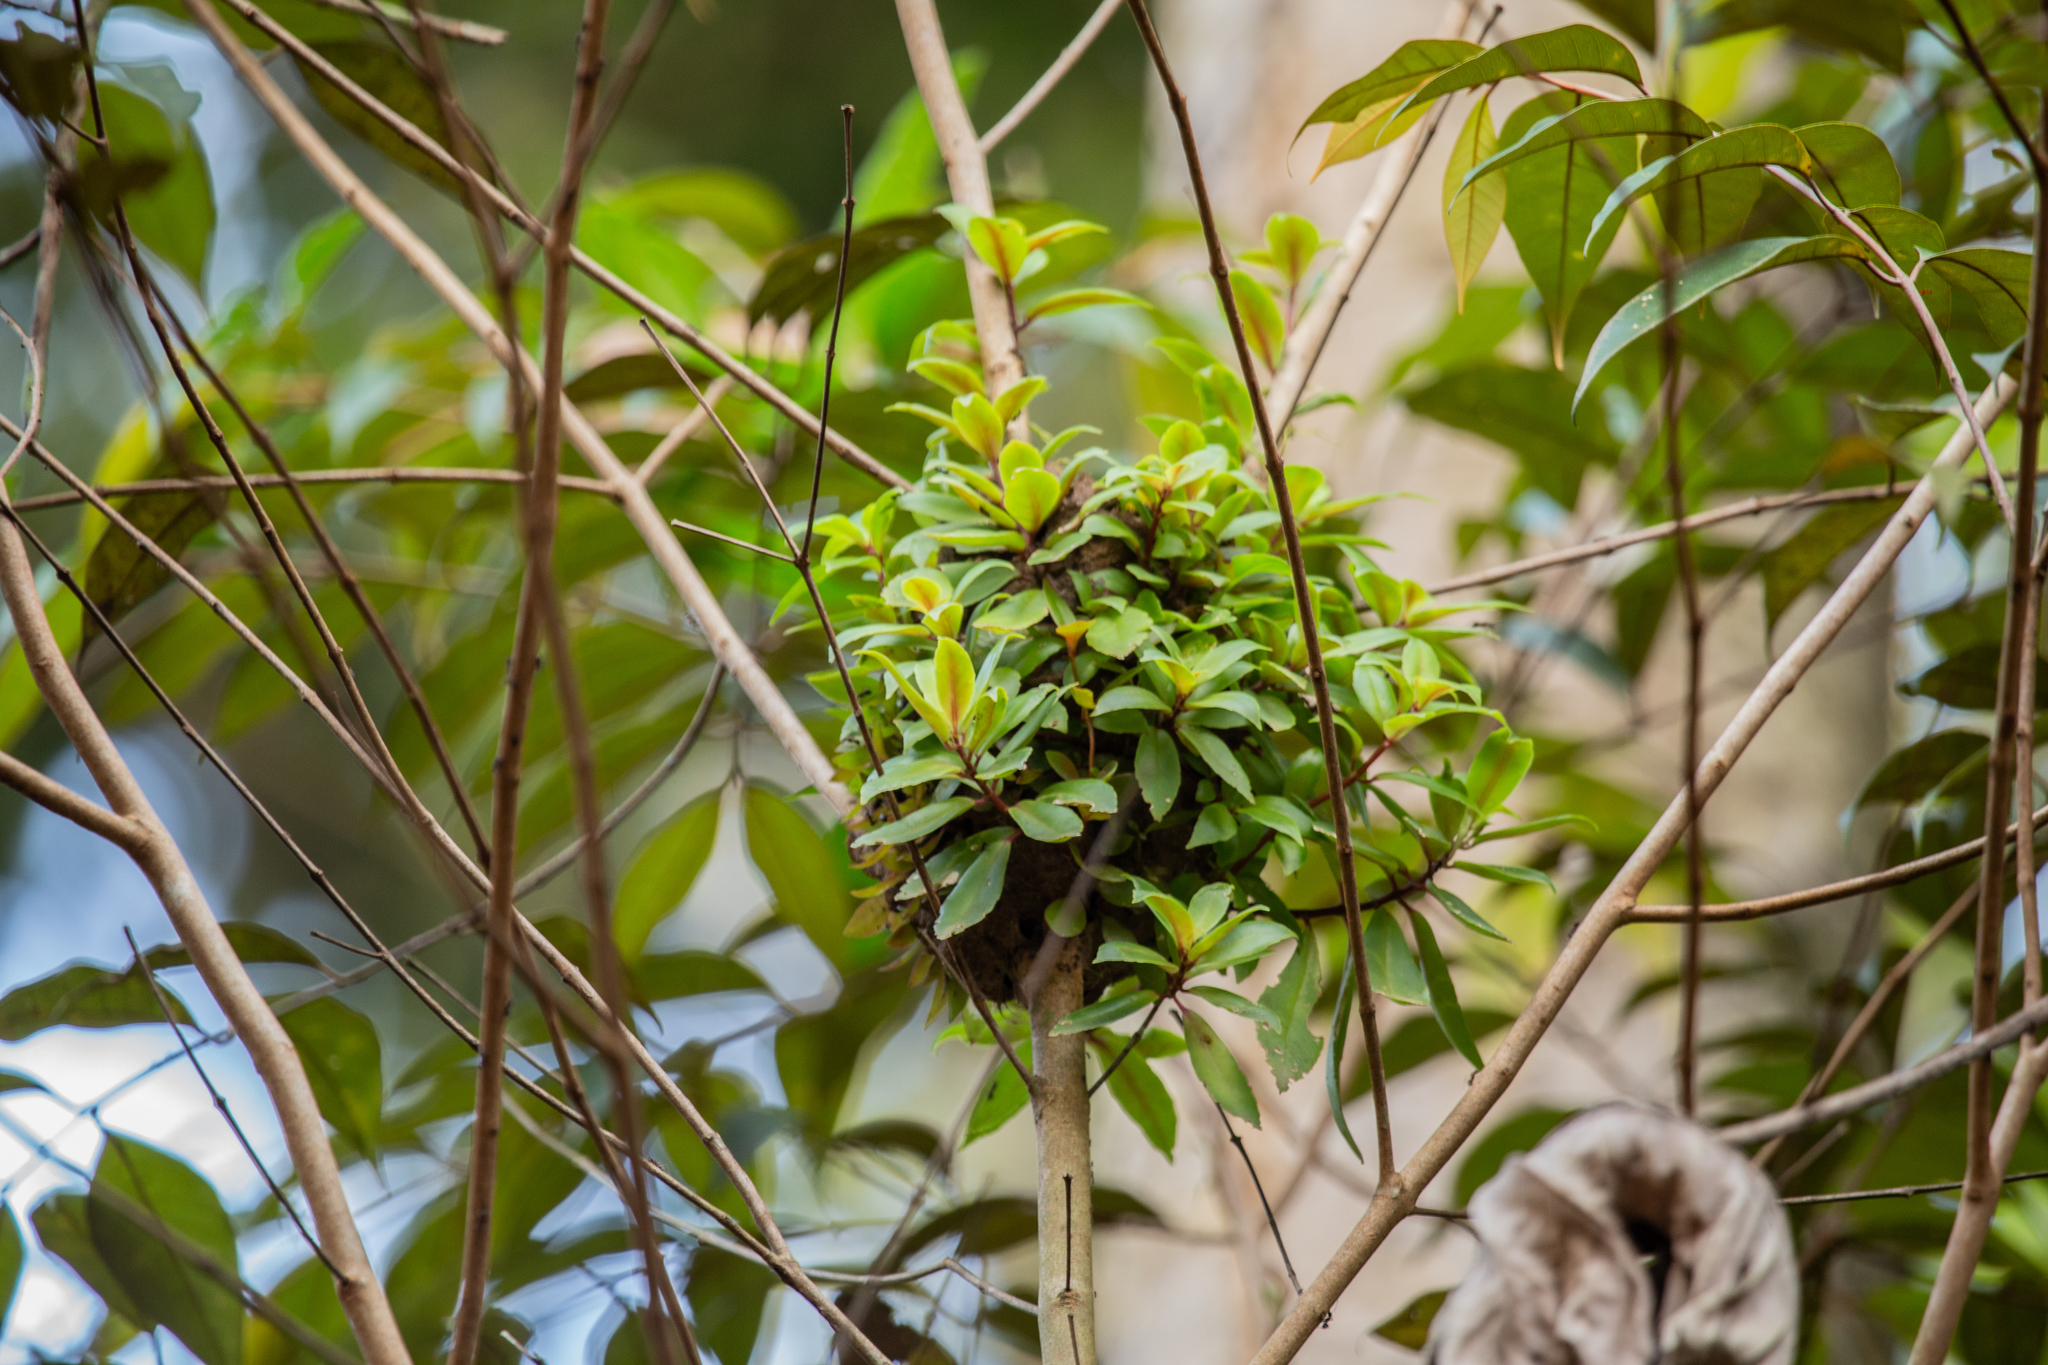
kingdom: Plantae
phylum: Tracheophyta
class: Magnoliopsida
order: Lamiales
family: Gesneriaceae
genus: Codonanthopsis
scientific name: Codonanthopsis calcarata
